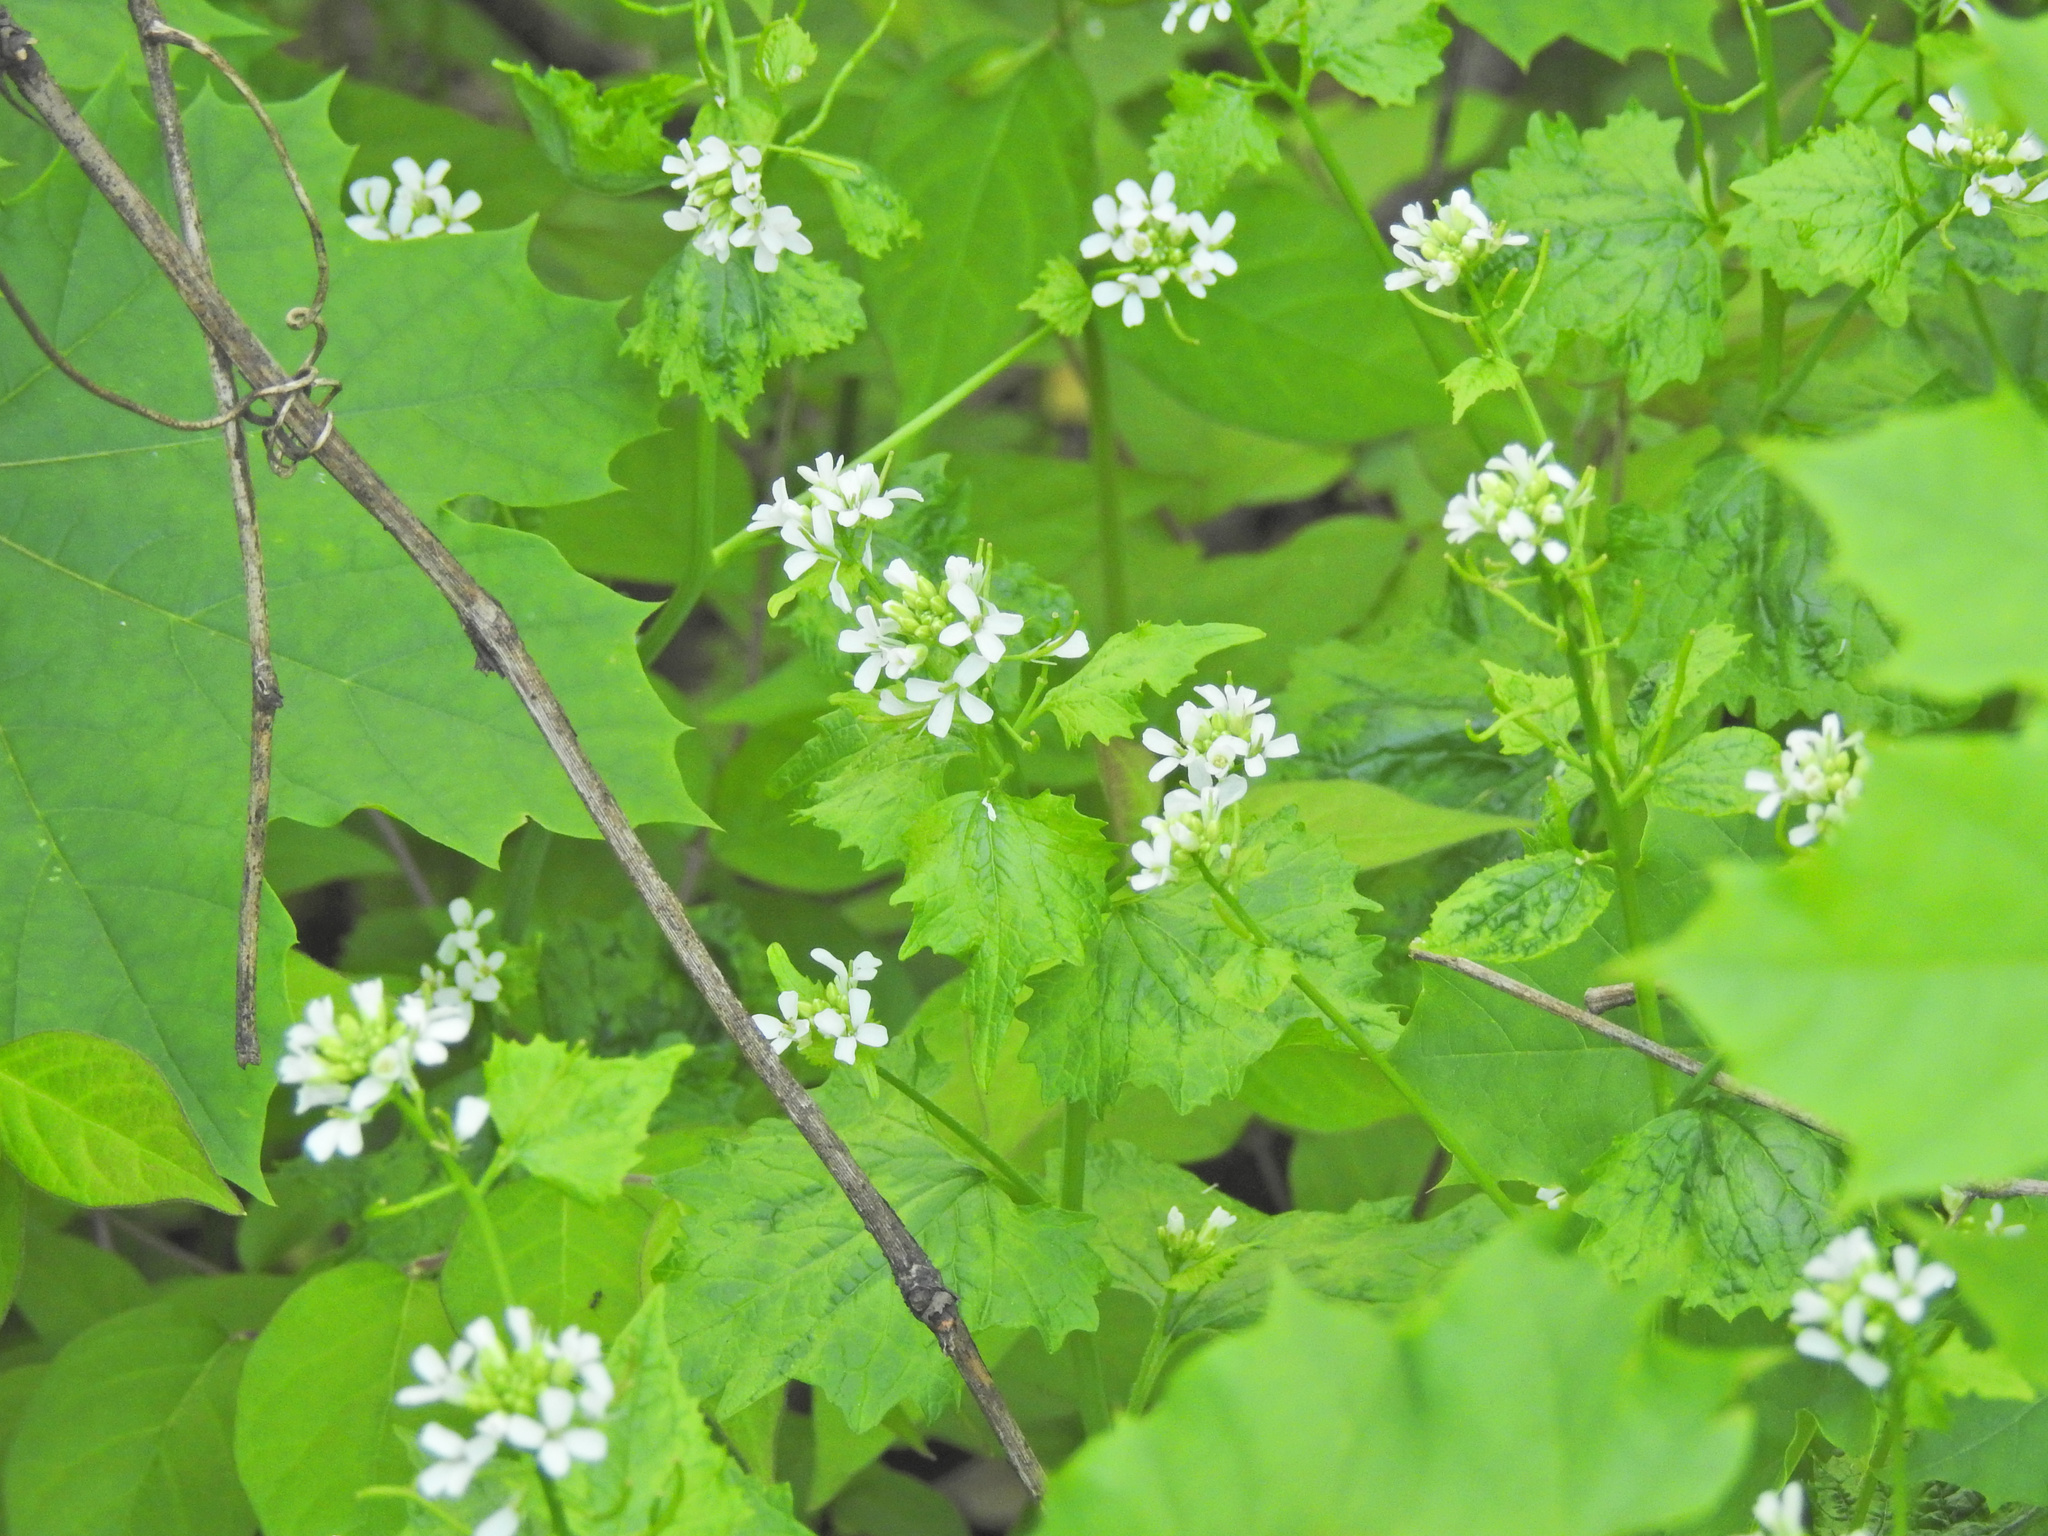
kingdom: Plantae
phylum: Tracheophyta
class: Magnoliopsida
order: Brassicales
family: Brassicaceae
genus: Alliaria
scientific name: Alliaria petiolata
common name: Garlic mustard
